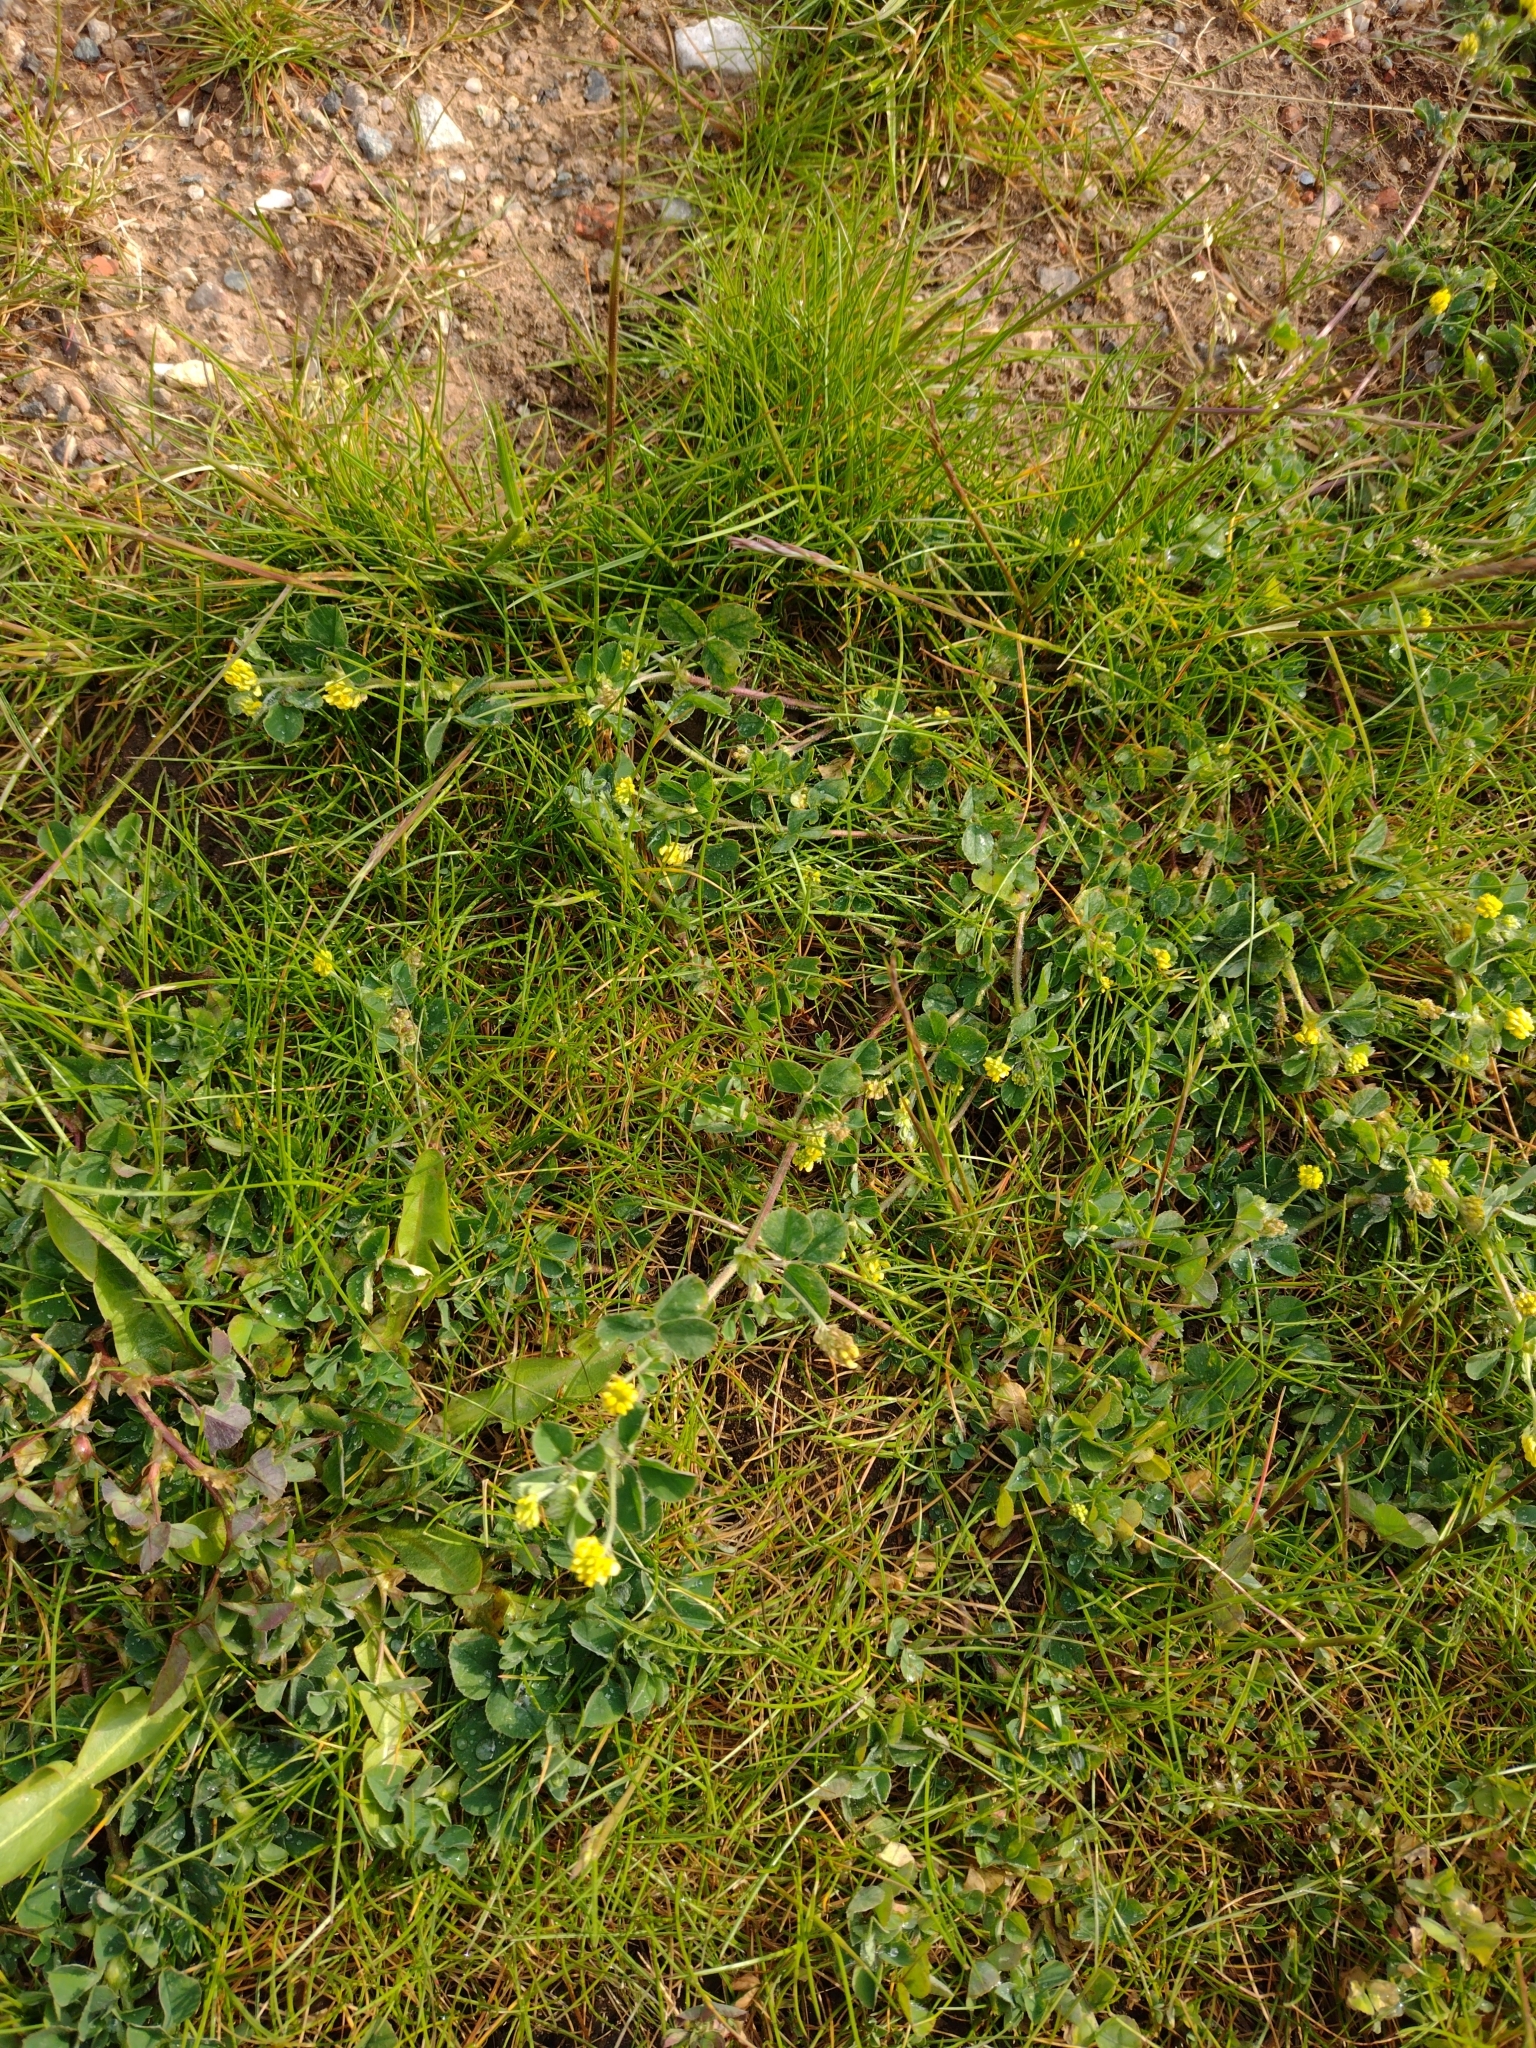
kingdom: Plantae
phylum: Tracheophyta
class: Magnoliopsida
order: Fabales
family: Fabaceae
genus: Medicago
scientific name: Medicago lupulina
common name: Black medick
